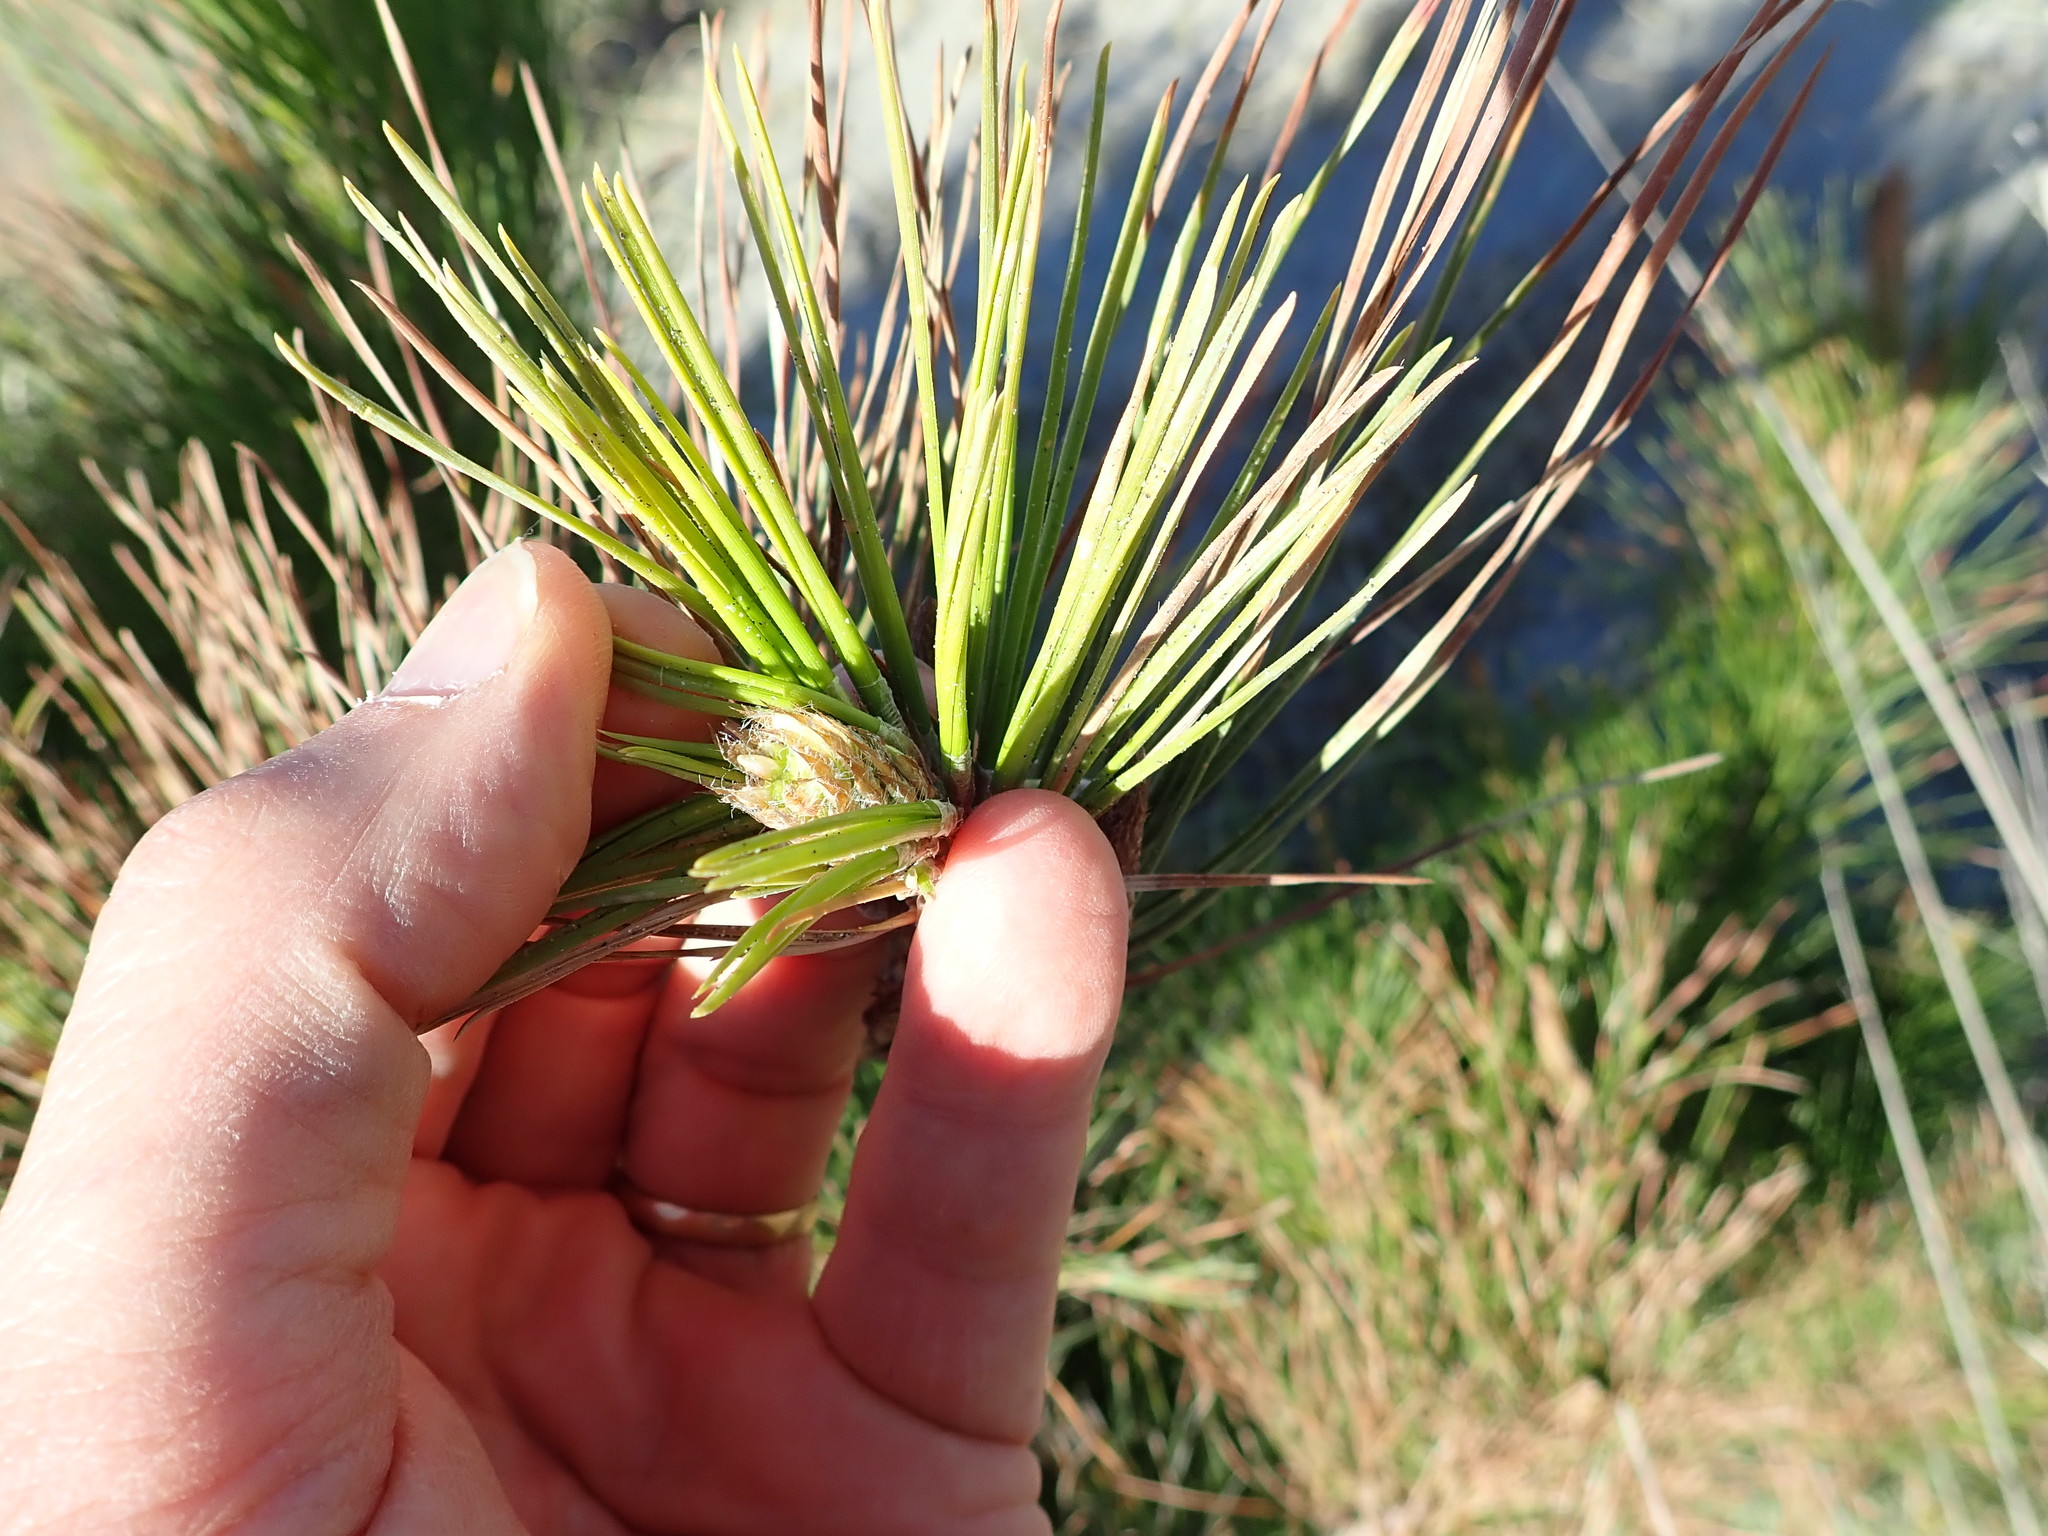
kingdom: Plantae
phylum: Tracheophyta
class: Pinopsida
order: Pinales
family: Pinaceae
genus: Pinus
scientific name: Pinus radiata
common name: Monterey pine
